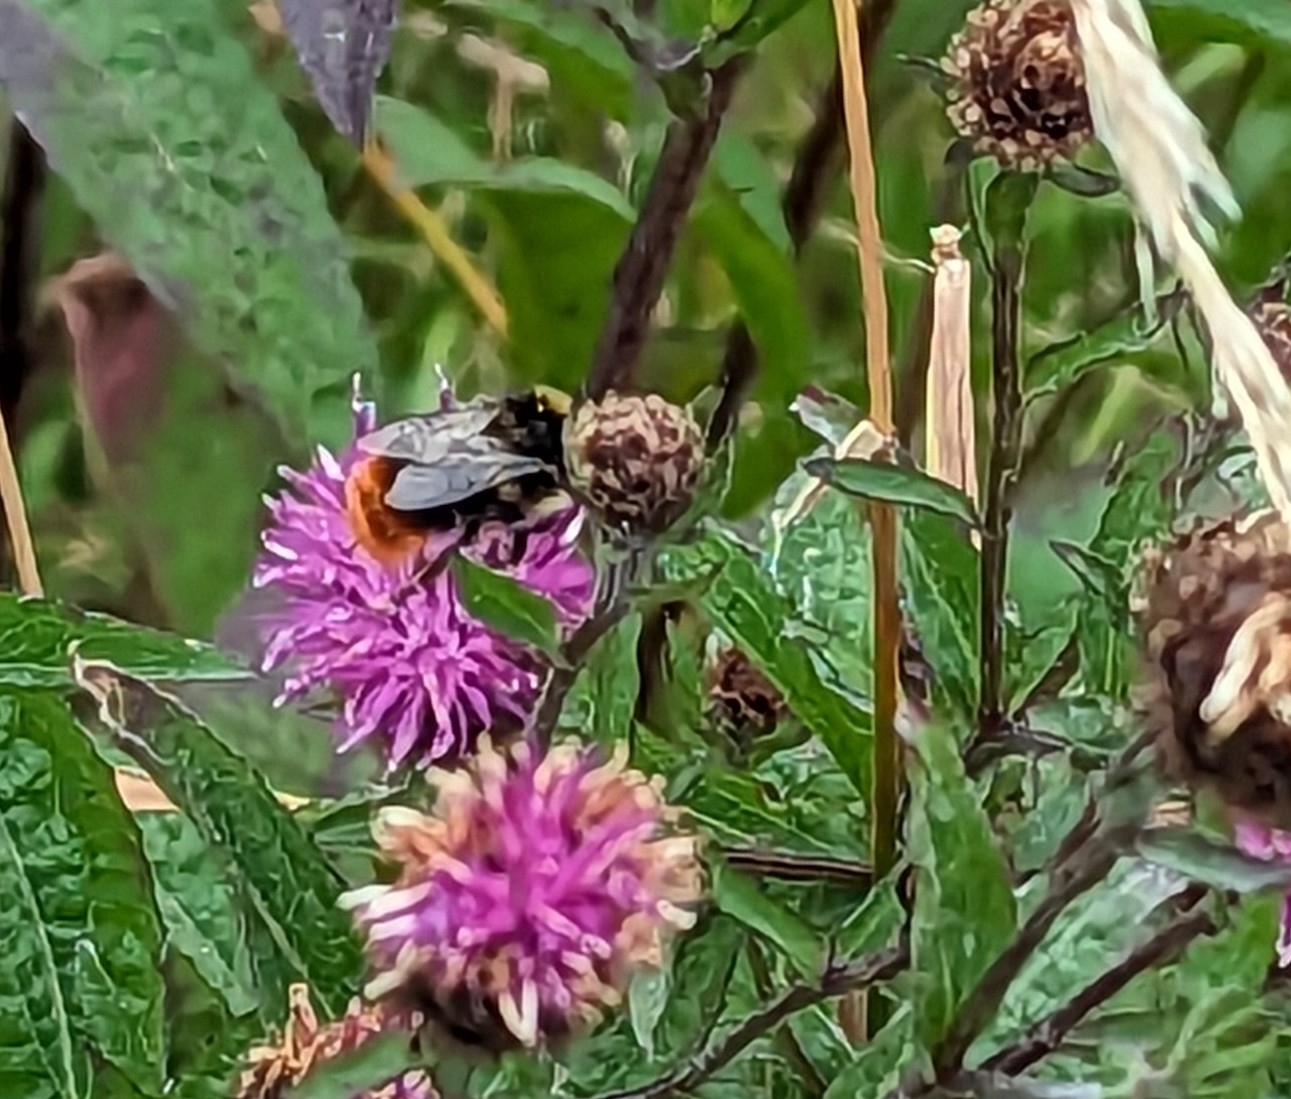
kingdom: Animalia
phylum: Arthropoda
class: Insecta
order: Hymenoptera
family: Apidae
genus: Bombus
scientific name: Bombus lapidarius
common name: Large red-tailed humble-bee
